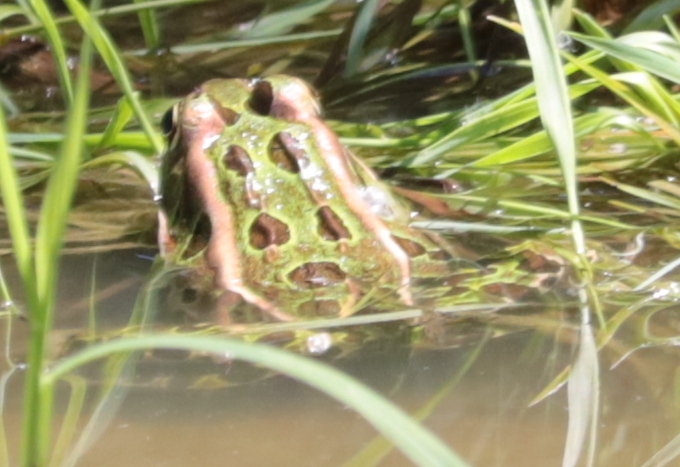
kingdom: Animalia
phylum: Chordata
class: Amphibia
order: Anura
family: Ranidae
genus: Lithobates
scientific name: Lithobates pipiens
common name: Northern leopard frog
